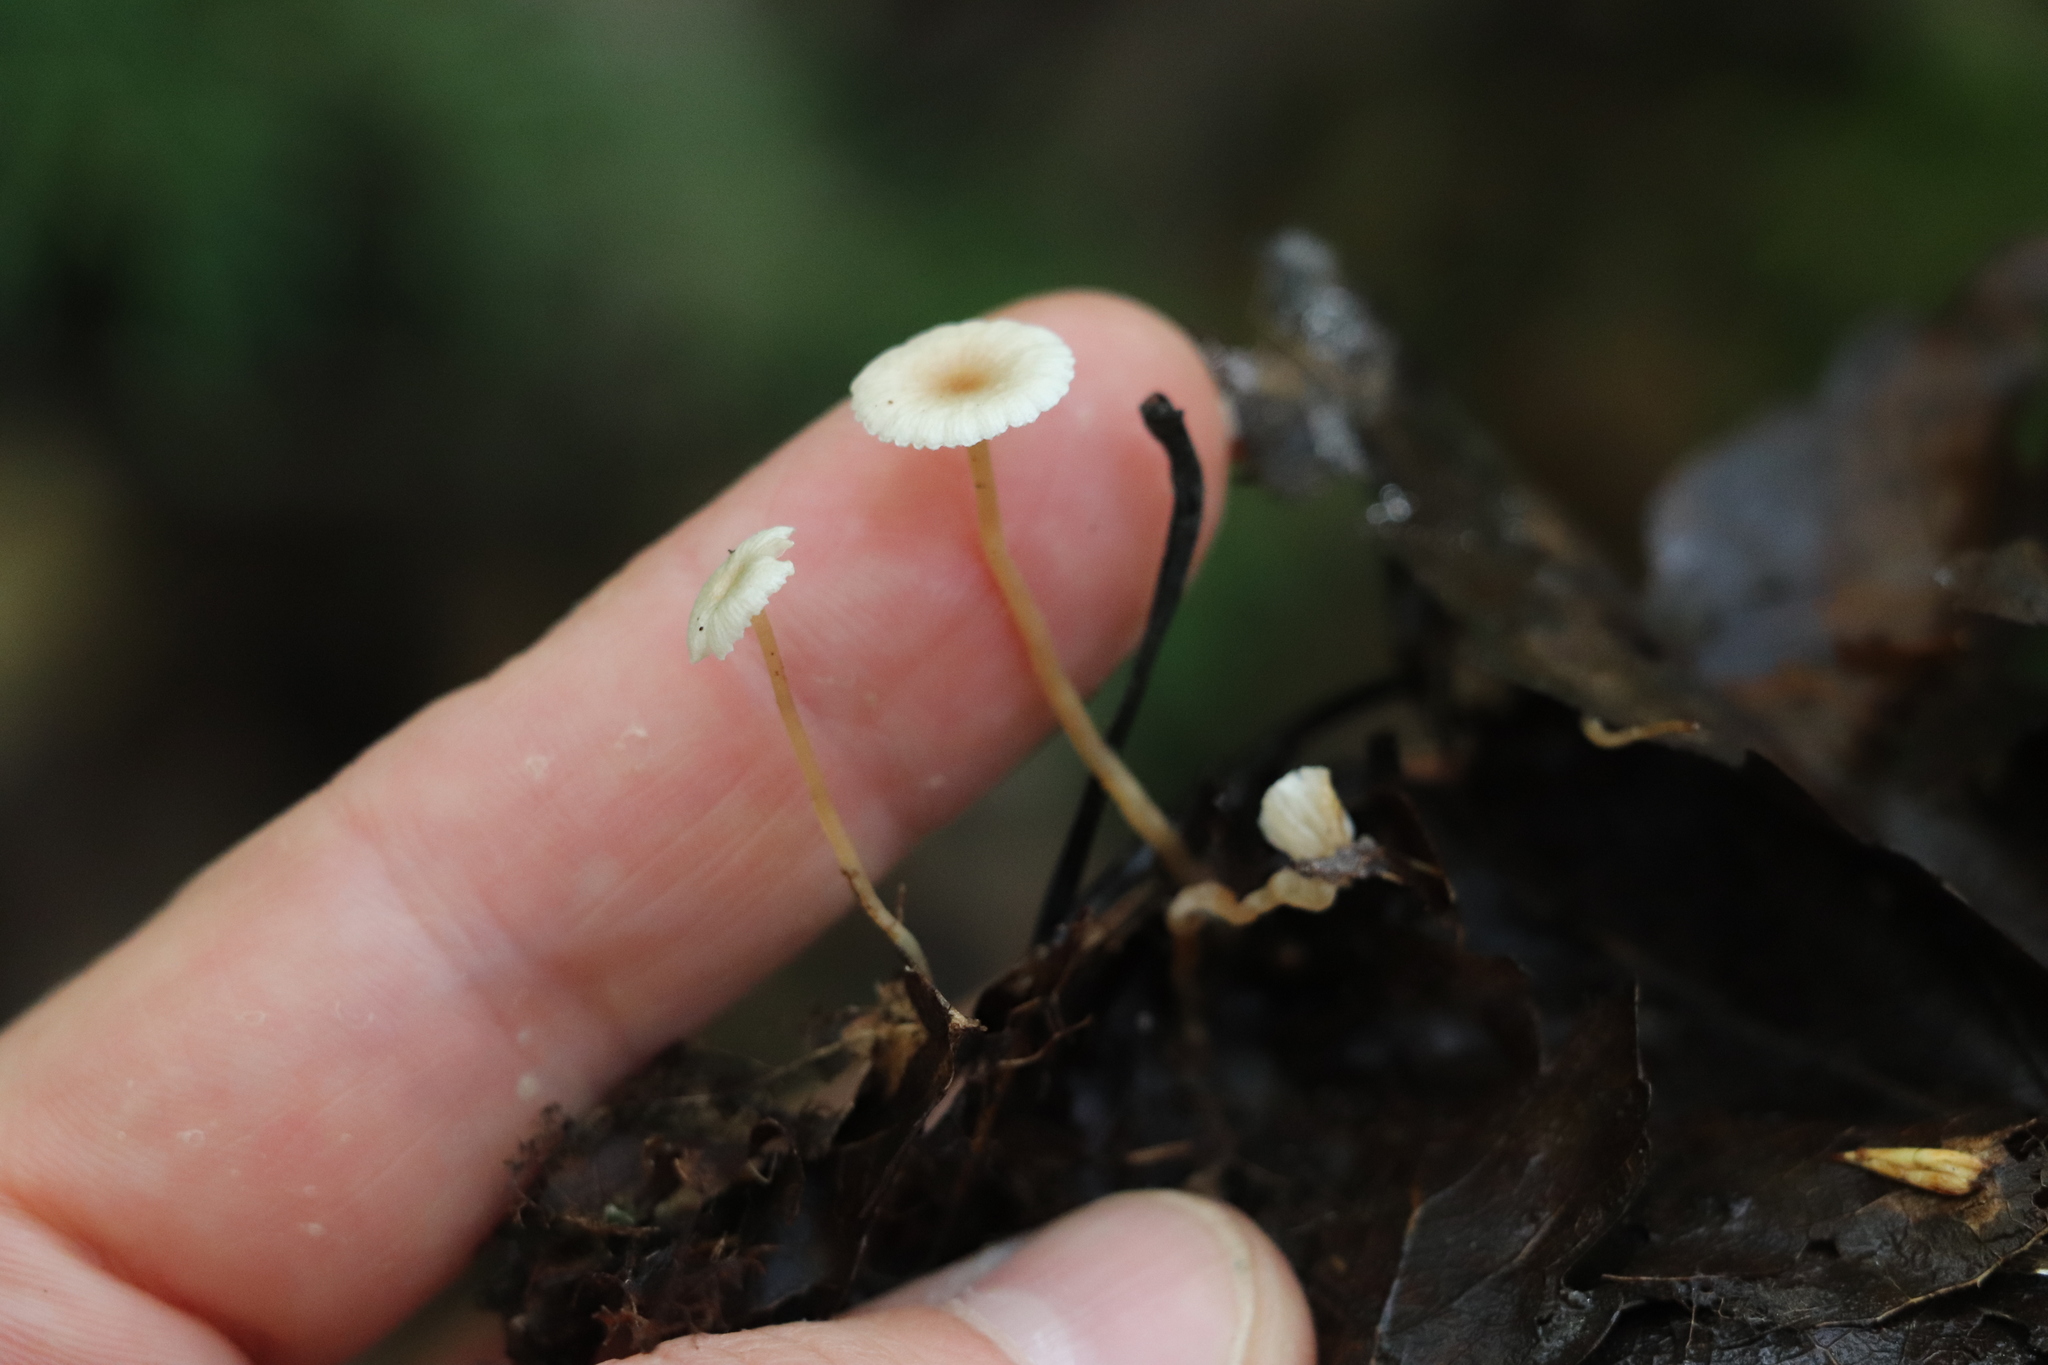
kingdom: Fungi
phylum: Basidiomycota
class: Agaricomycetes
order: Agaricales
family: Tricholomataceae
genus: Collybia
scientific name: Collybia cirrhata
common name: Piggyback shanklet
